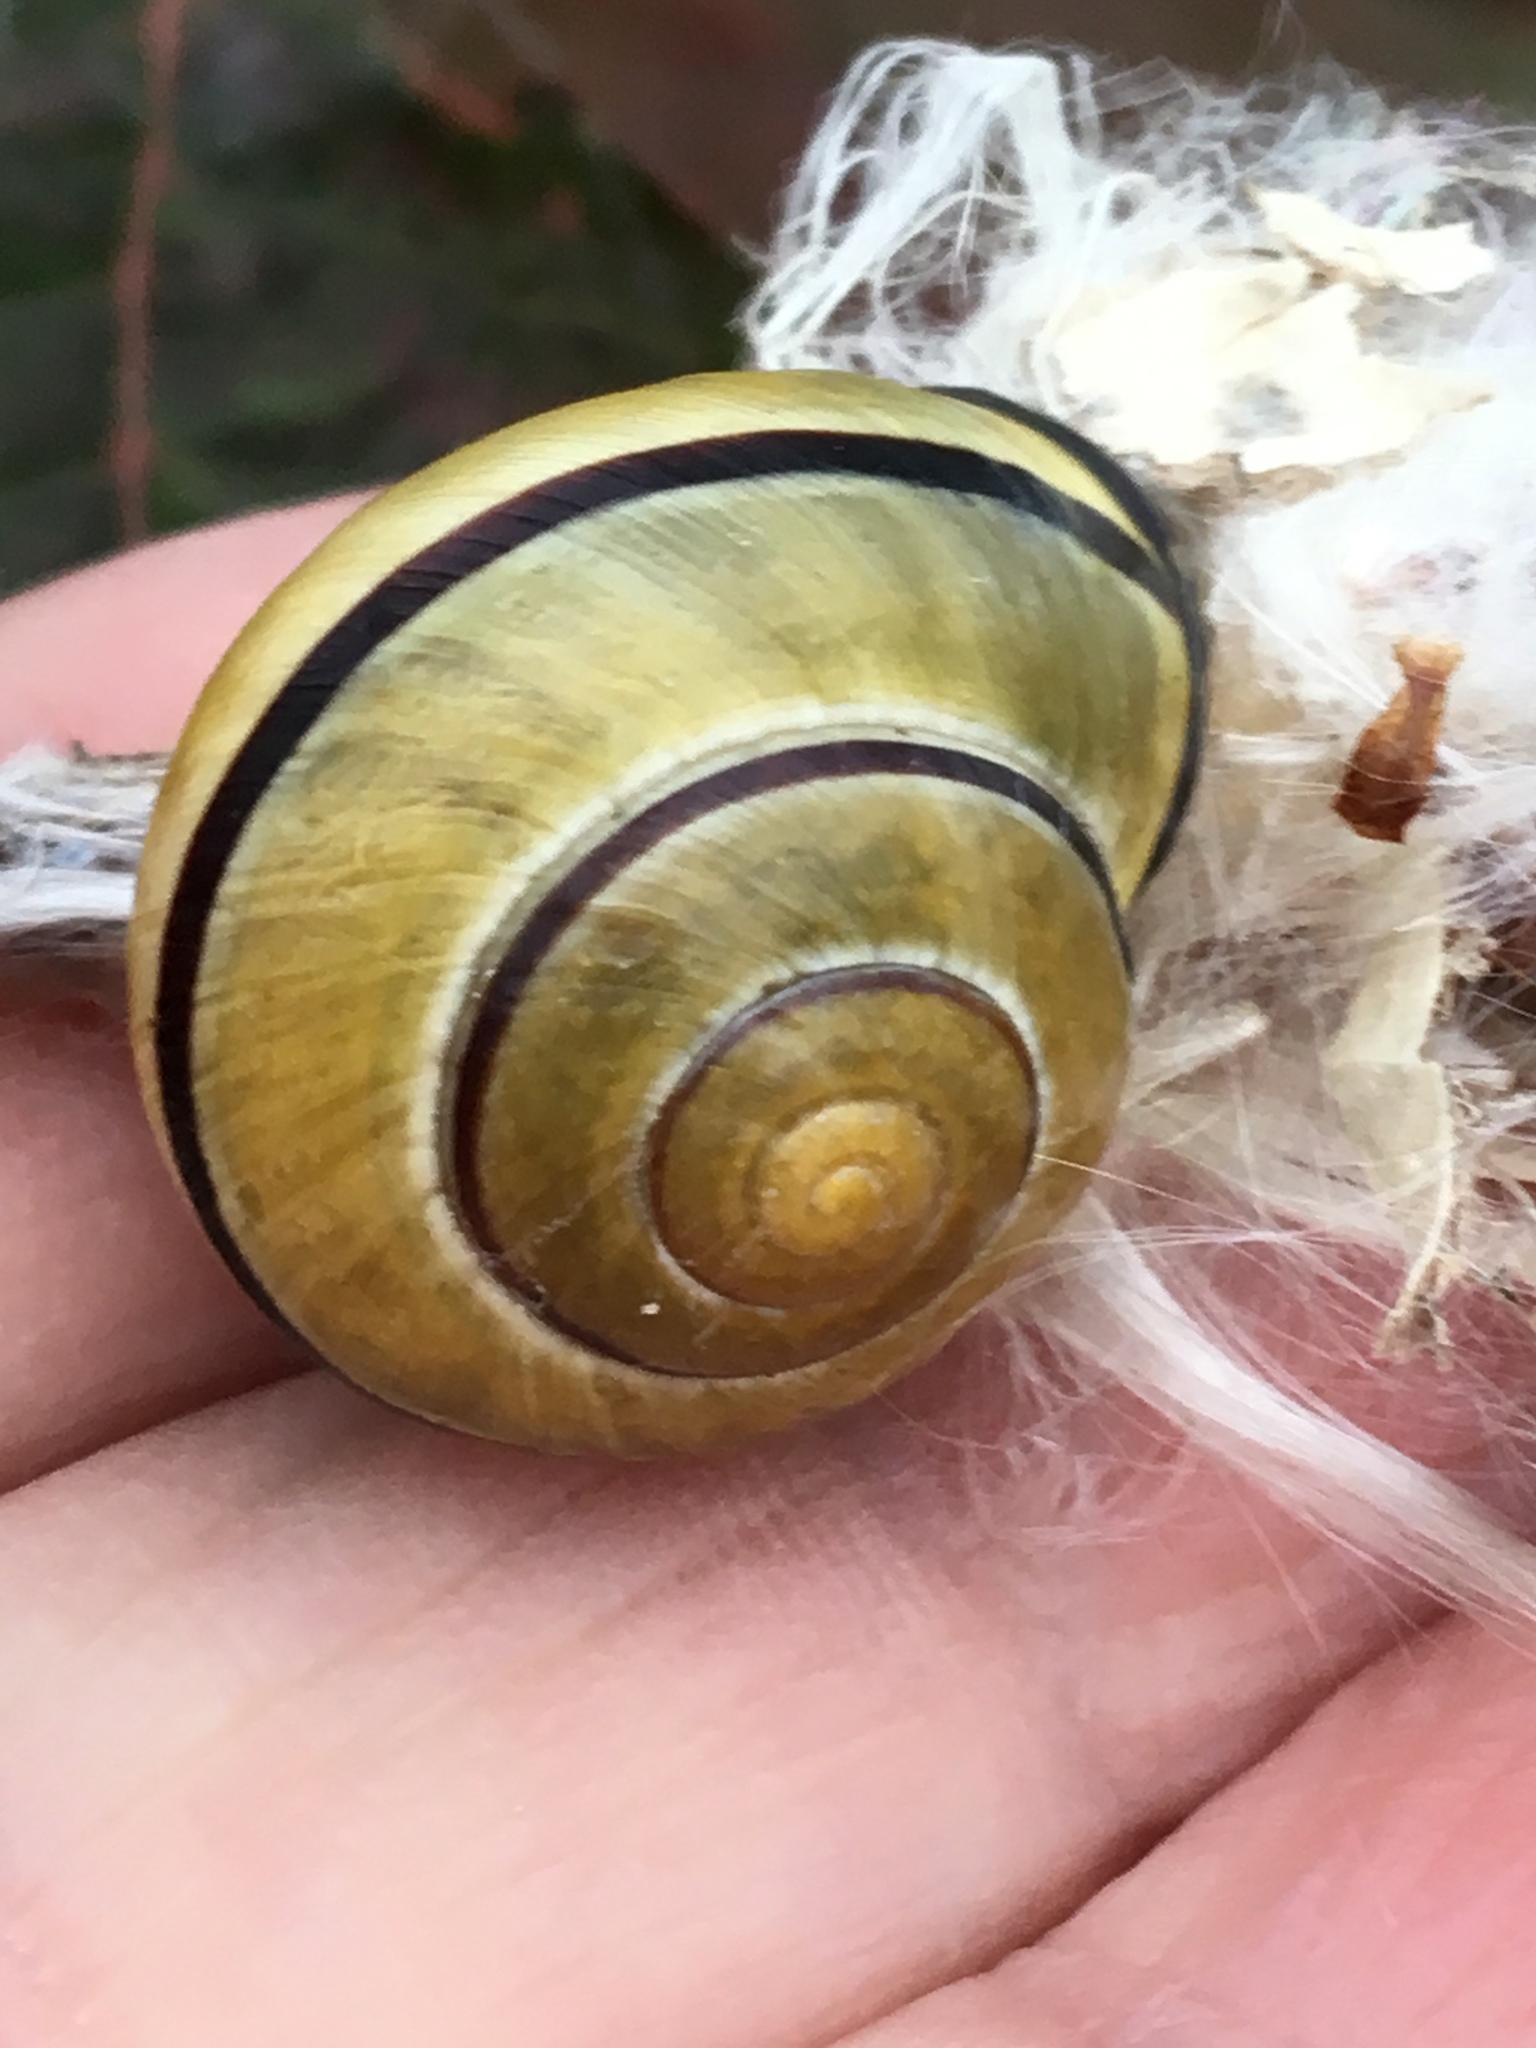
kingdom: Animalia
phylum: Mollusca
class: Gastropoda
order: Stylommatophora
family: Helicidae
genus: Cepaea
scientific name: Cepaea nemoralis
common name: Grovesnail
